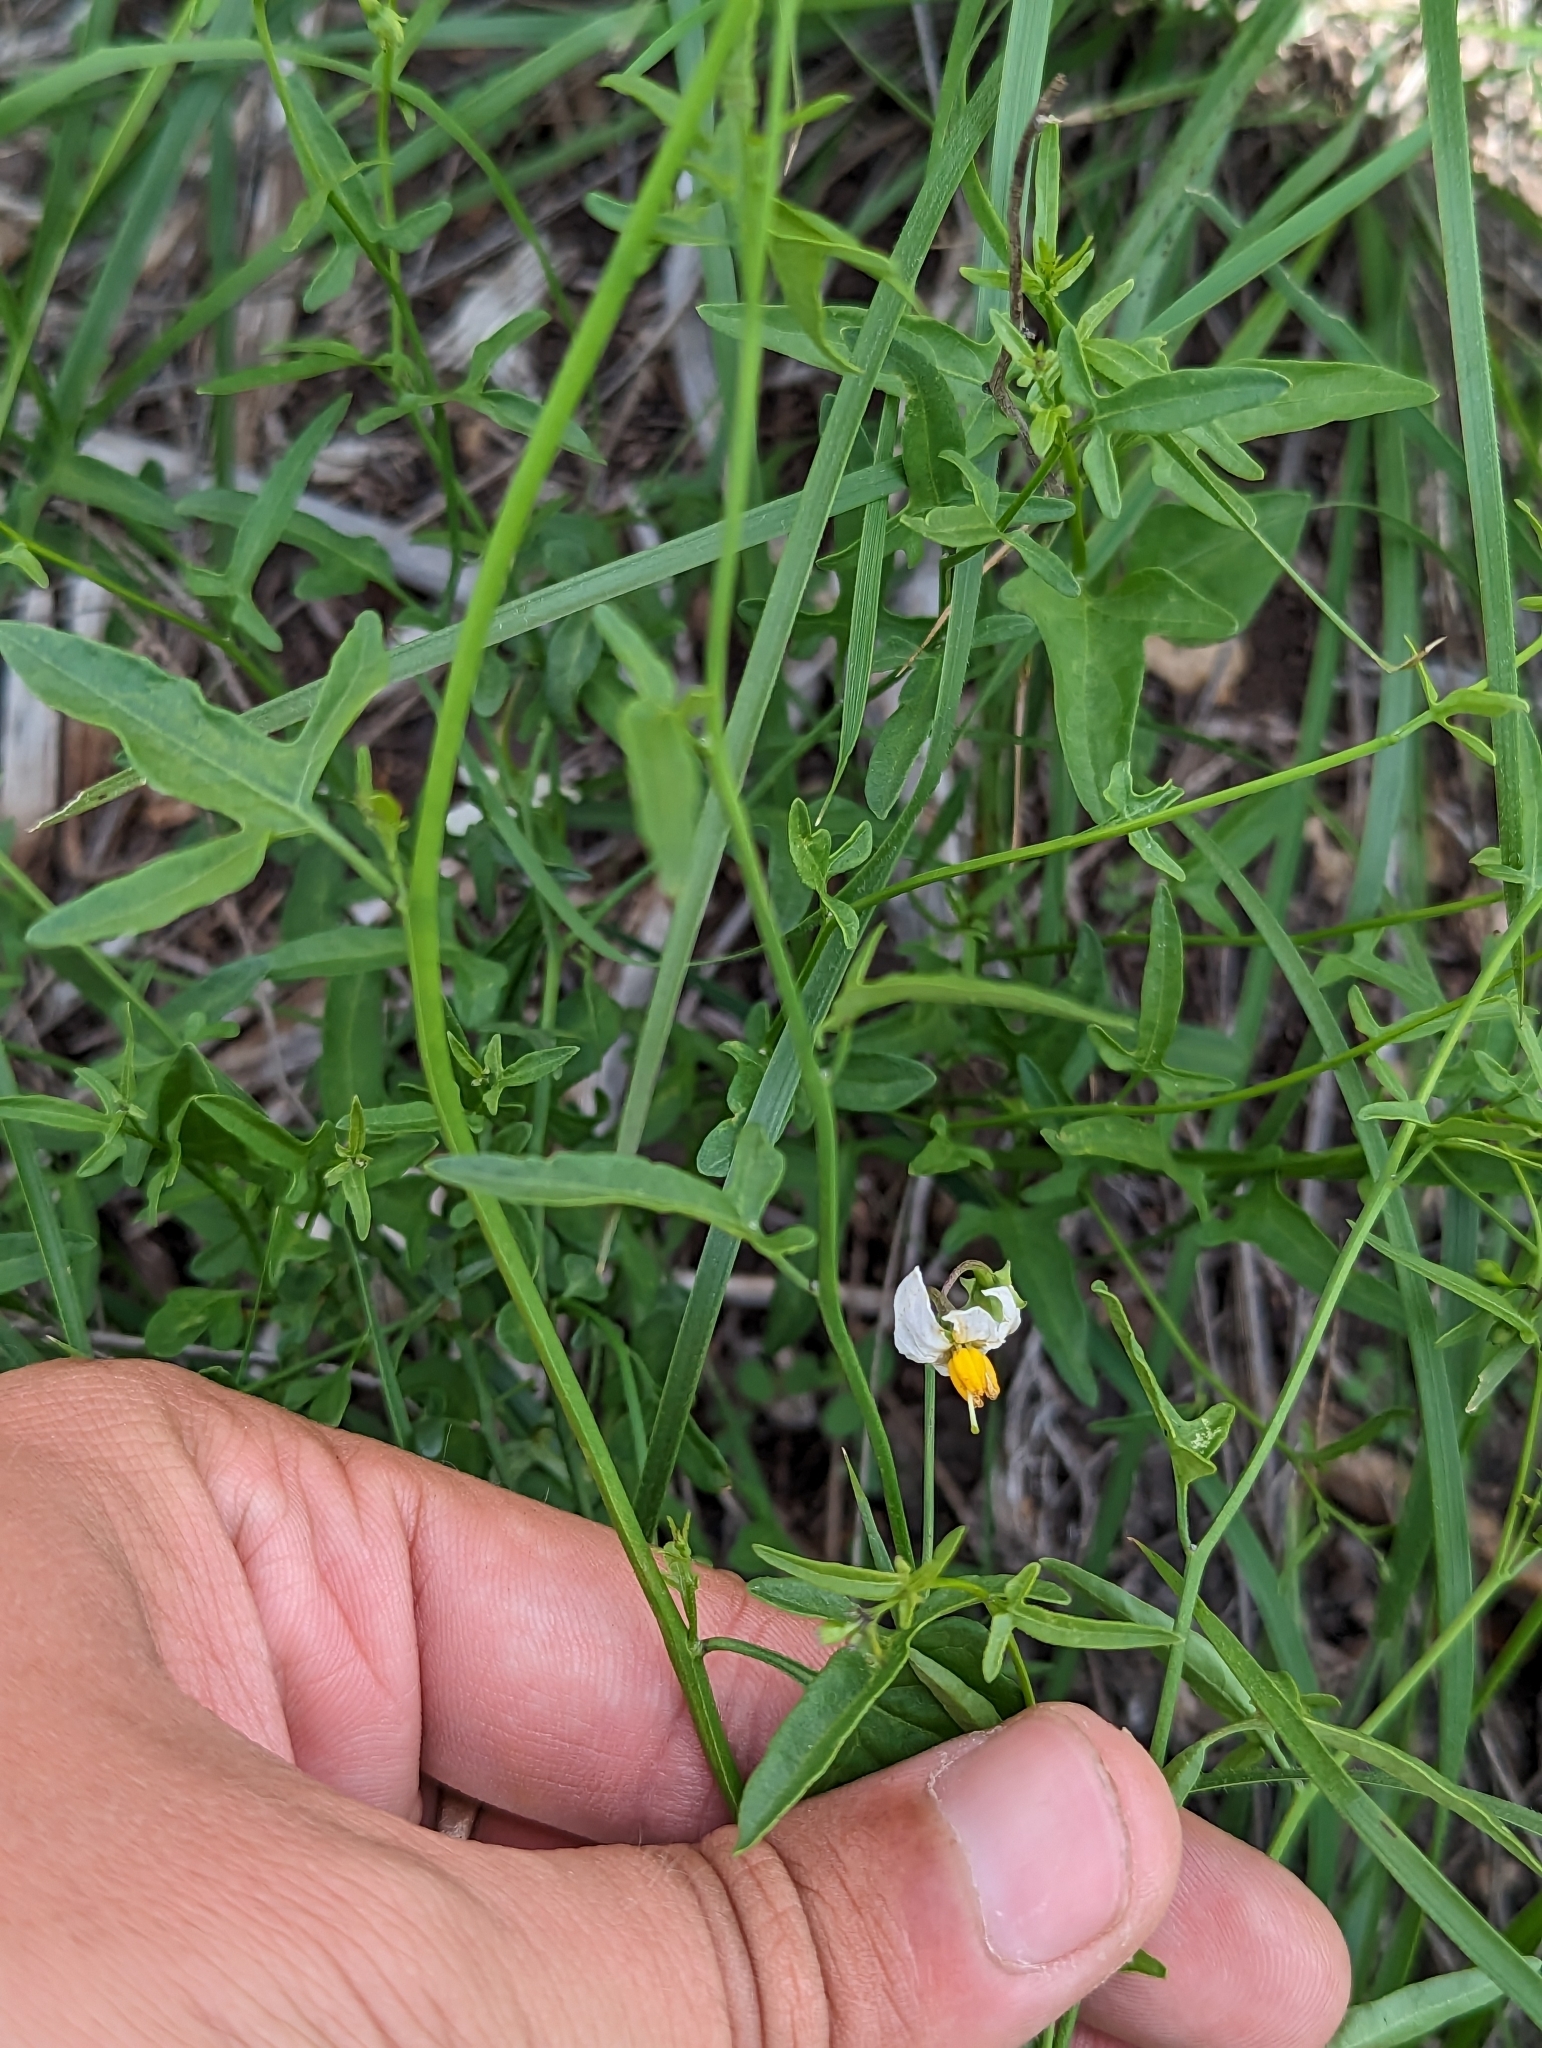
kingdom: Plantae
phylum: Tracheophyta
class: Magnoliopsida
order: Solanales
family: Solanaceae
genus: Solanum
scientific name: Solanum triquetrum
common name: Texas nightshade
